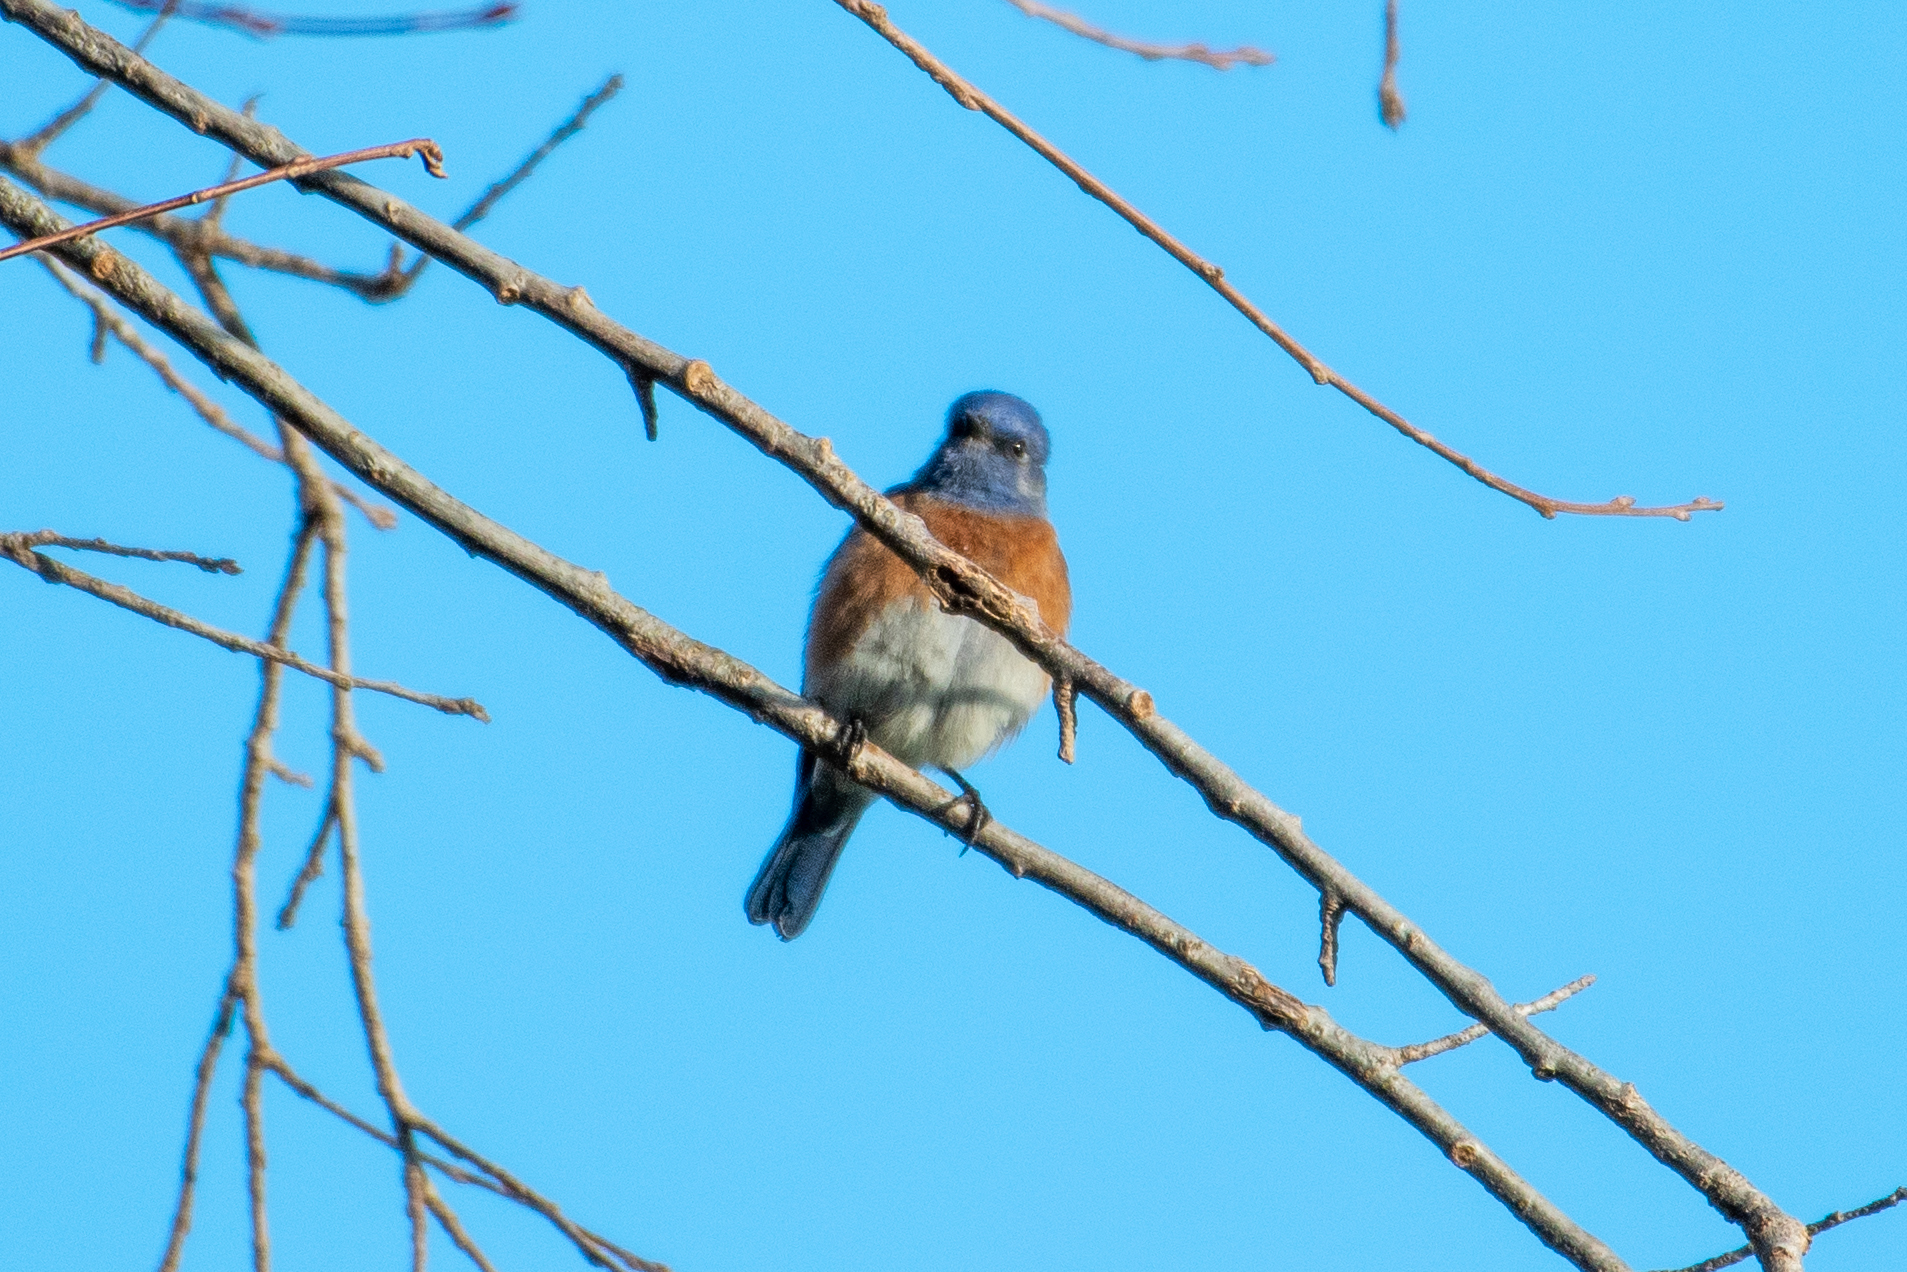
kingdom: Animalia
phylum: Chordata
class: Aves
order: Passeriformes
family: Turdidae
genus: Sialia
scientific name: Sialia mexicana
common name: Western bluebird
